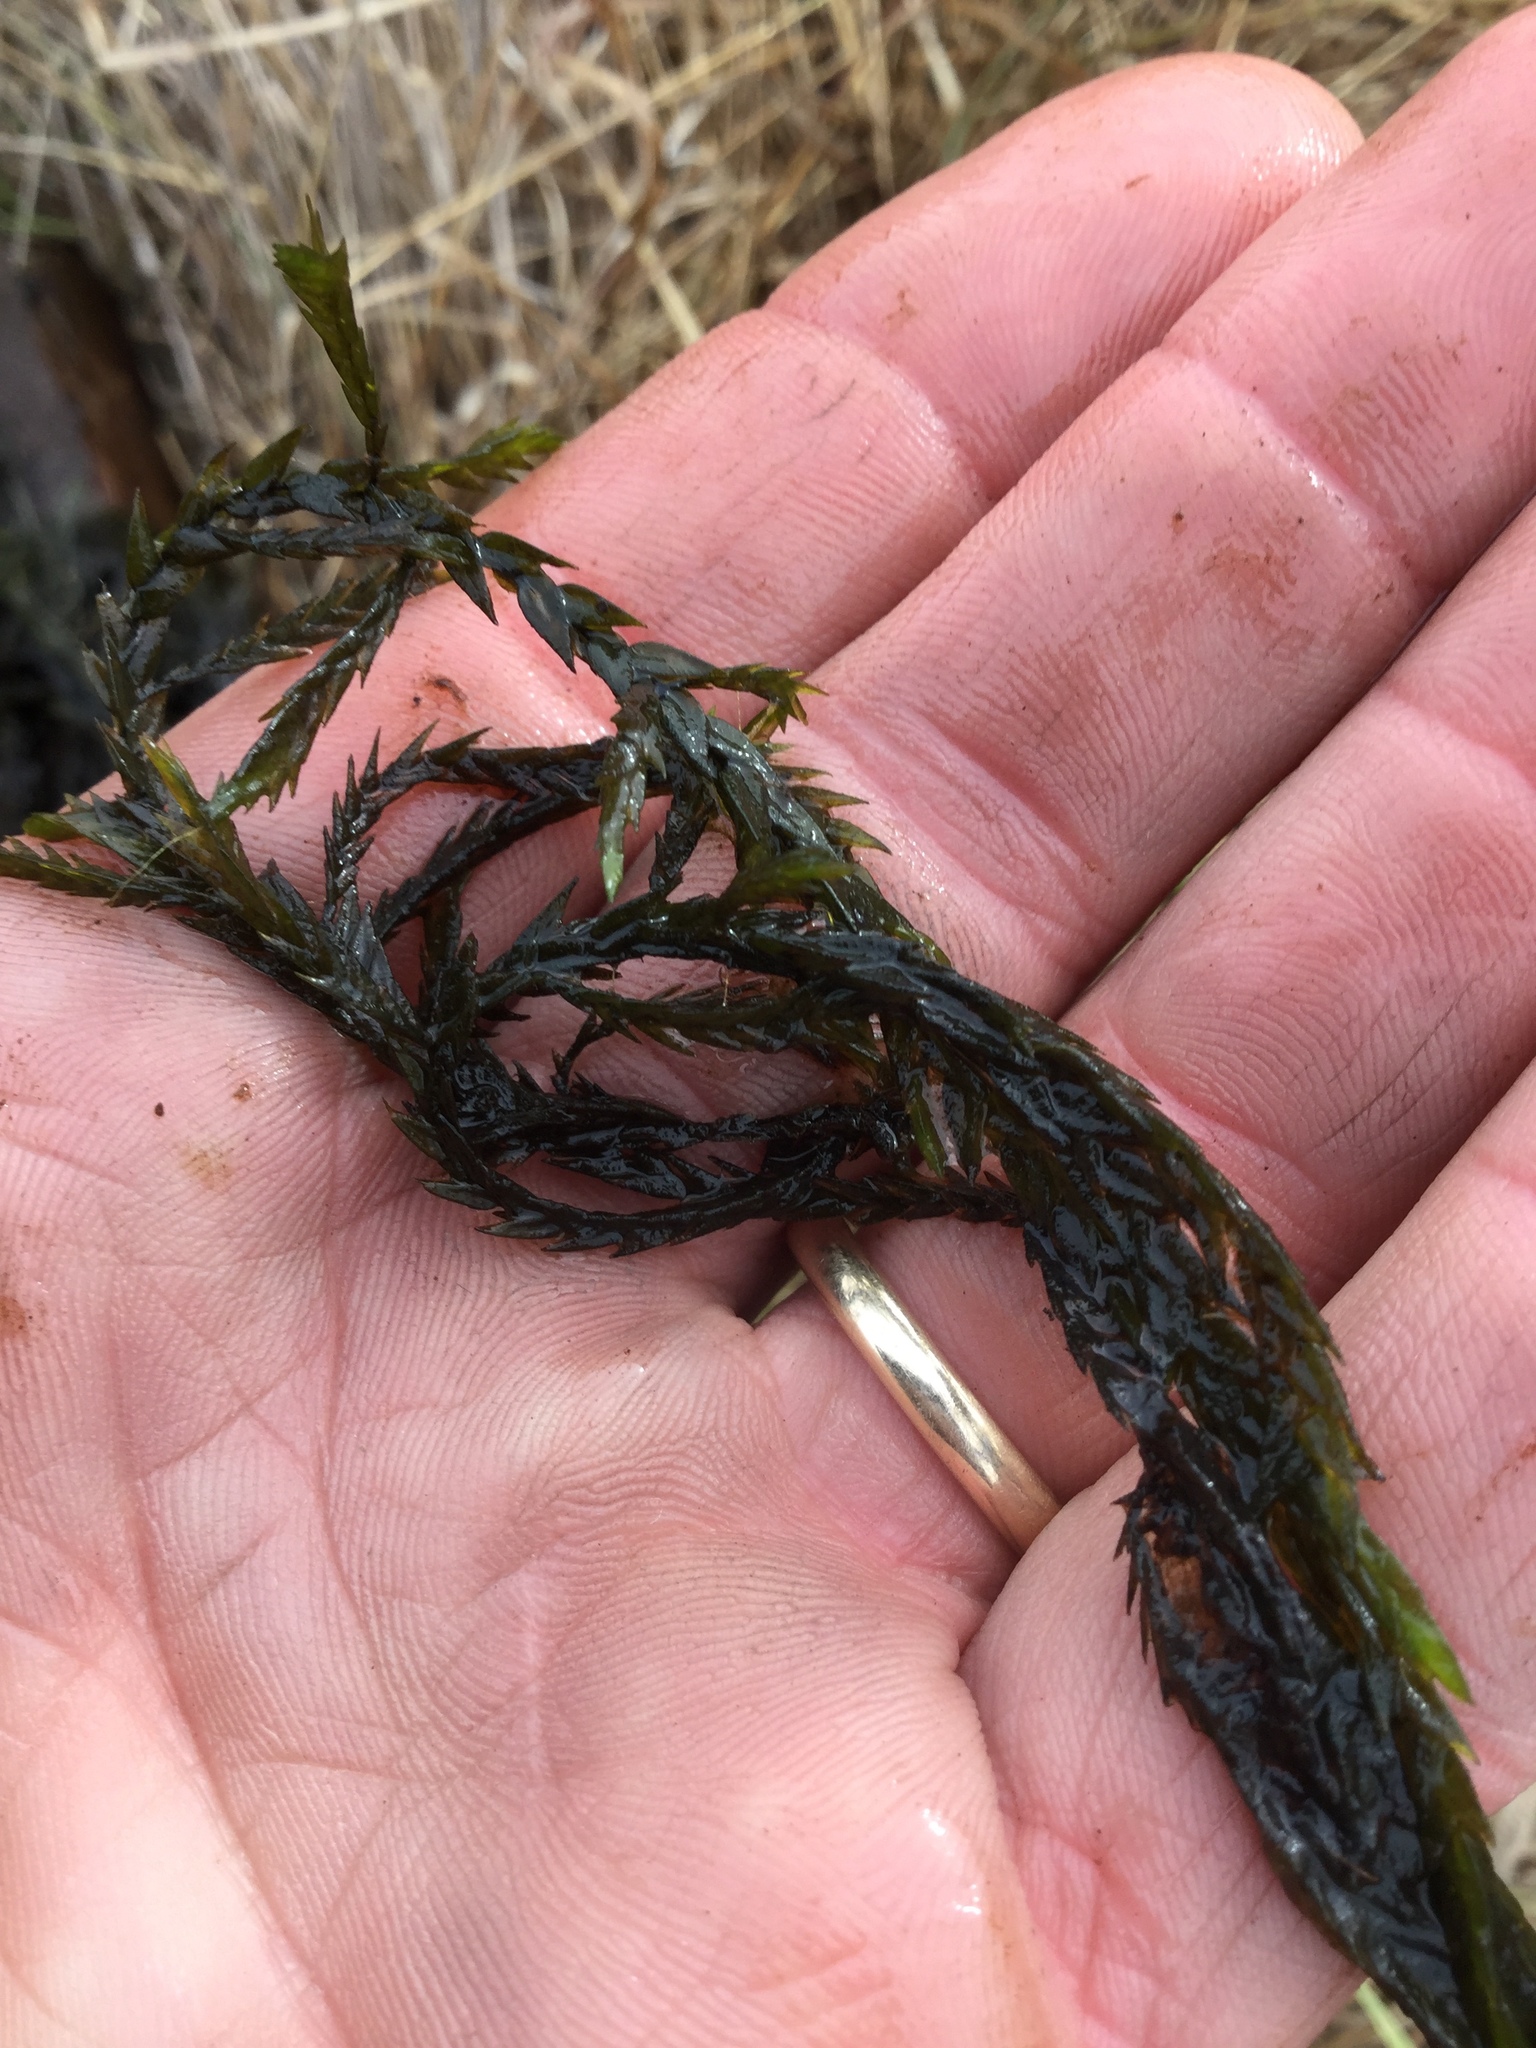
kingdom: Plantae
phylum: Bryophyta
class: Bryopsida
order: Hypnales
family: Fontinalaceae
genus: Fontinalis
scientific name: Fontinalis antipyretica
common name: Greater water-moss
